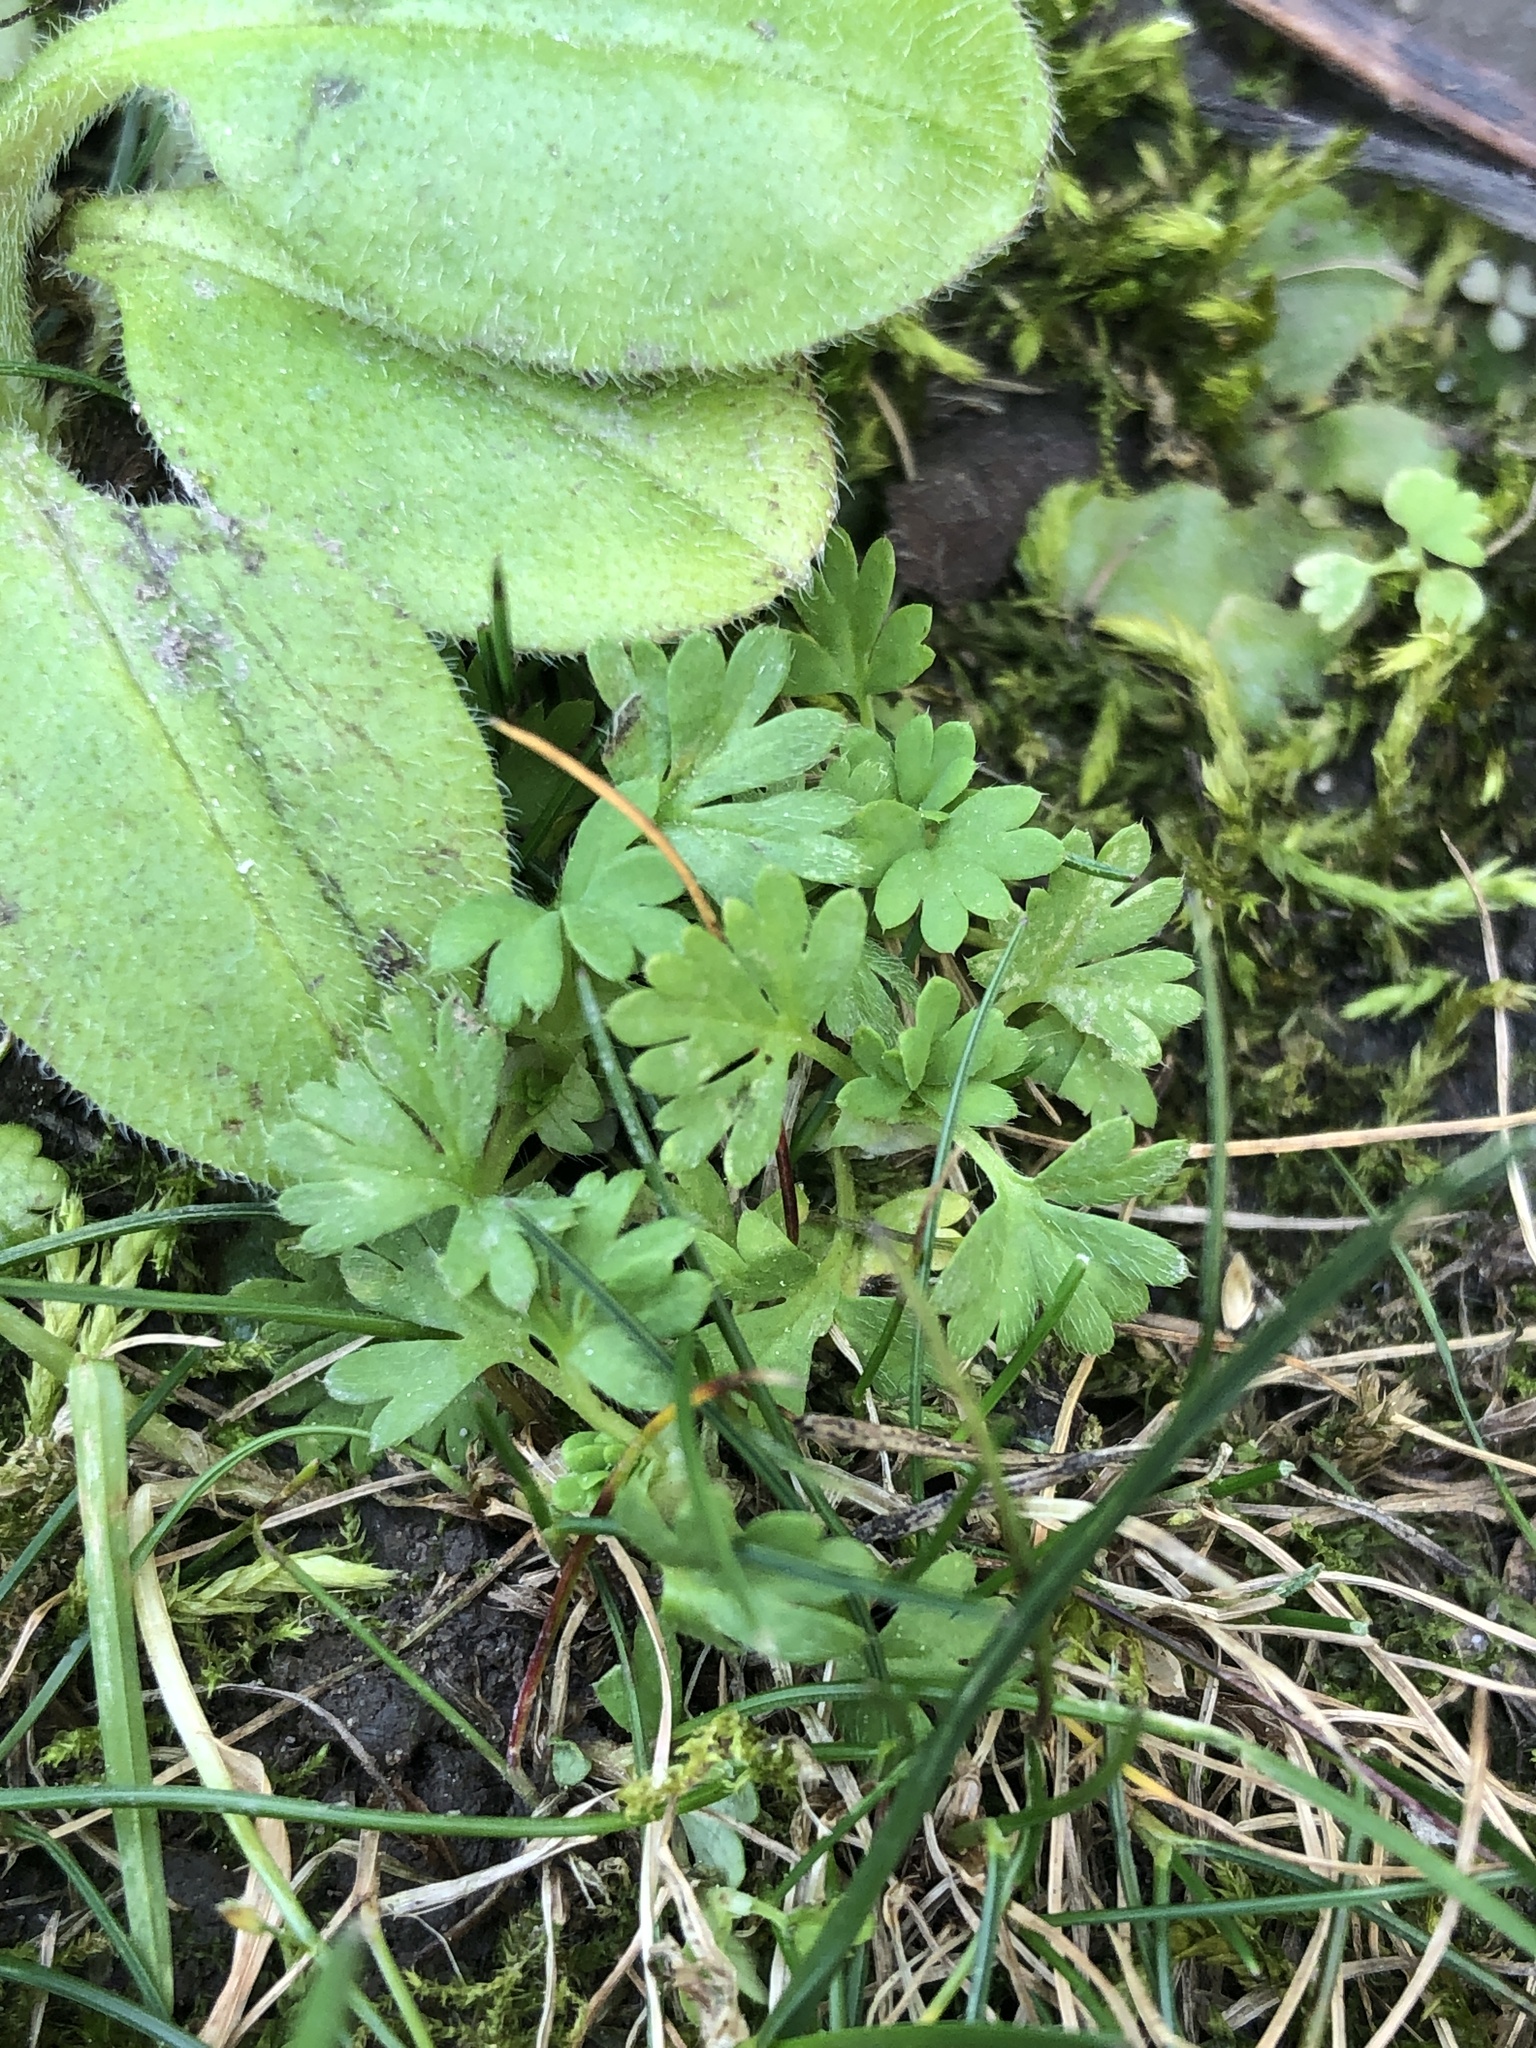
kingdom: Plantae
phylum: Tracheophyta
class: Magnoliopsida
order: Rosales
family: Rosaceae
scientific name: Rosaceae
